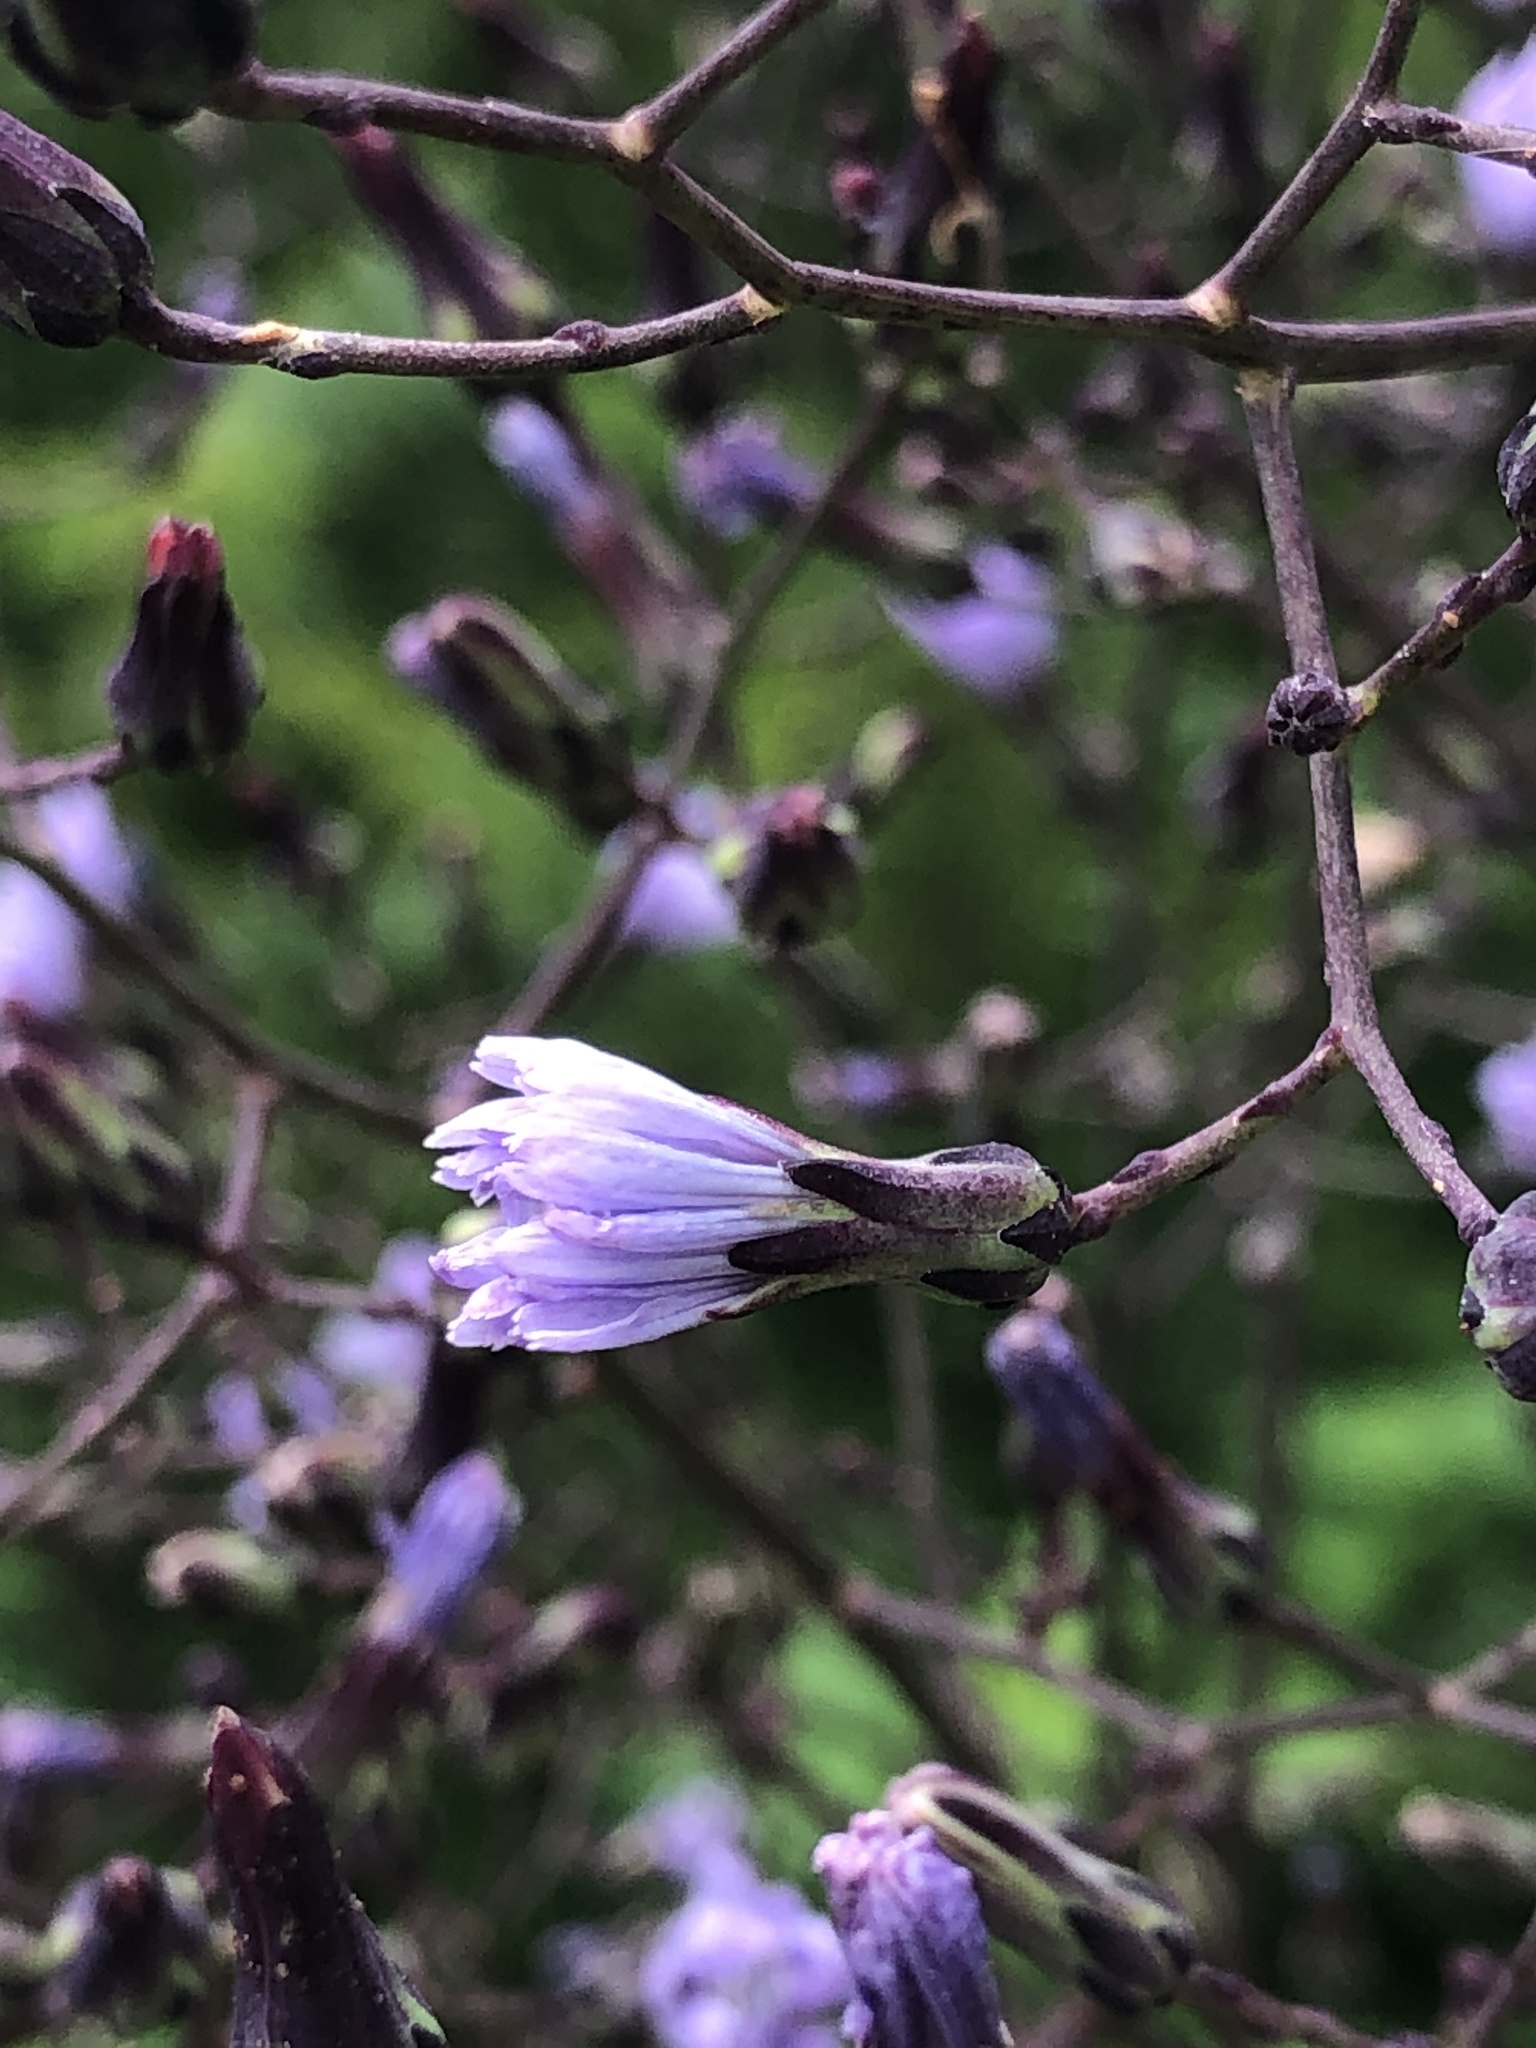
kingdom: Plantae
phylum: Tracheophyta
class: Magnoliopsida
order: Asterales
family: Asteraceae
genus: Lactuca
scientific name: Lactuca floridana
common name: Woodland lettuce
